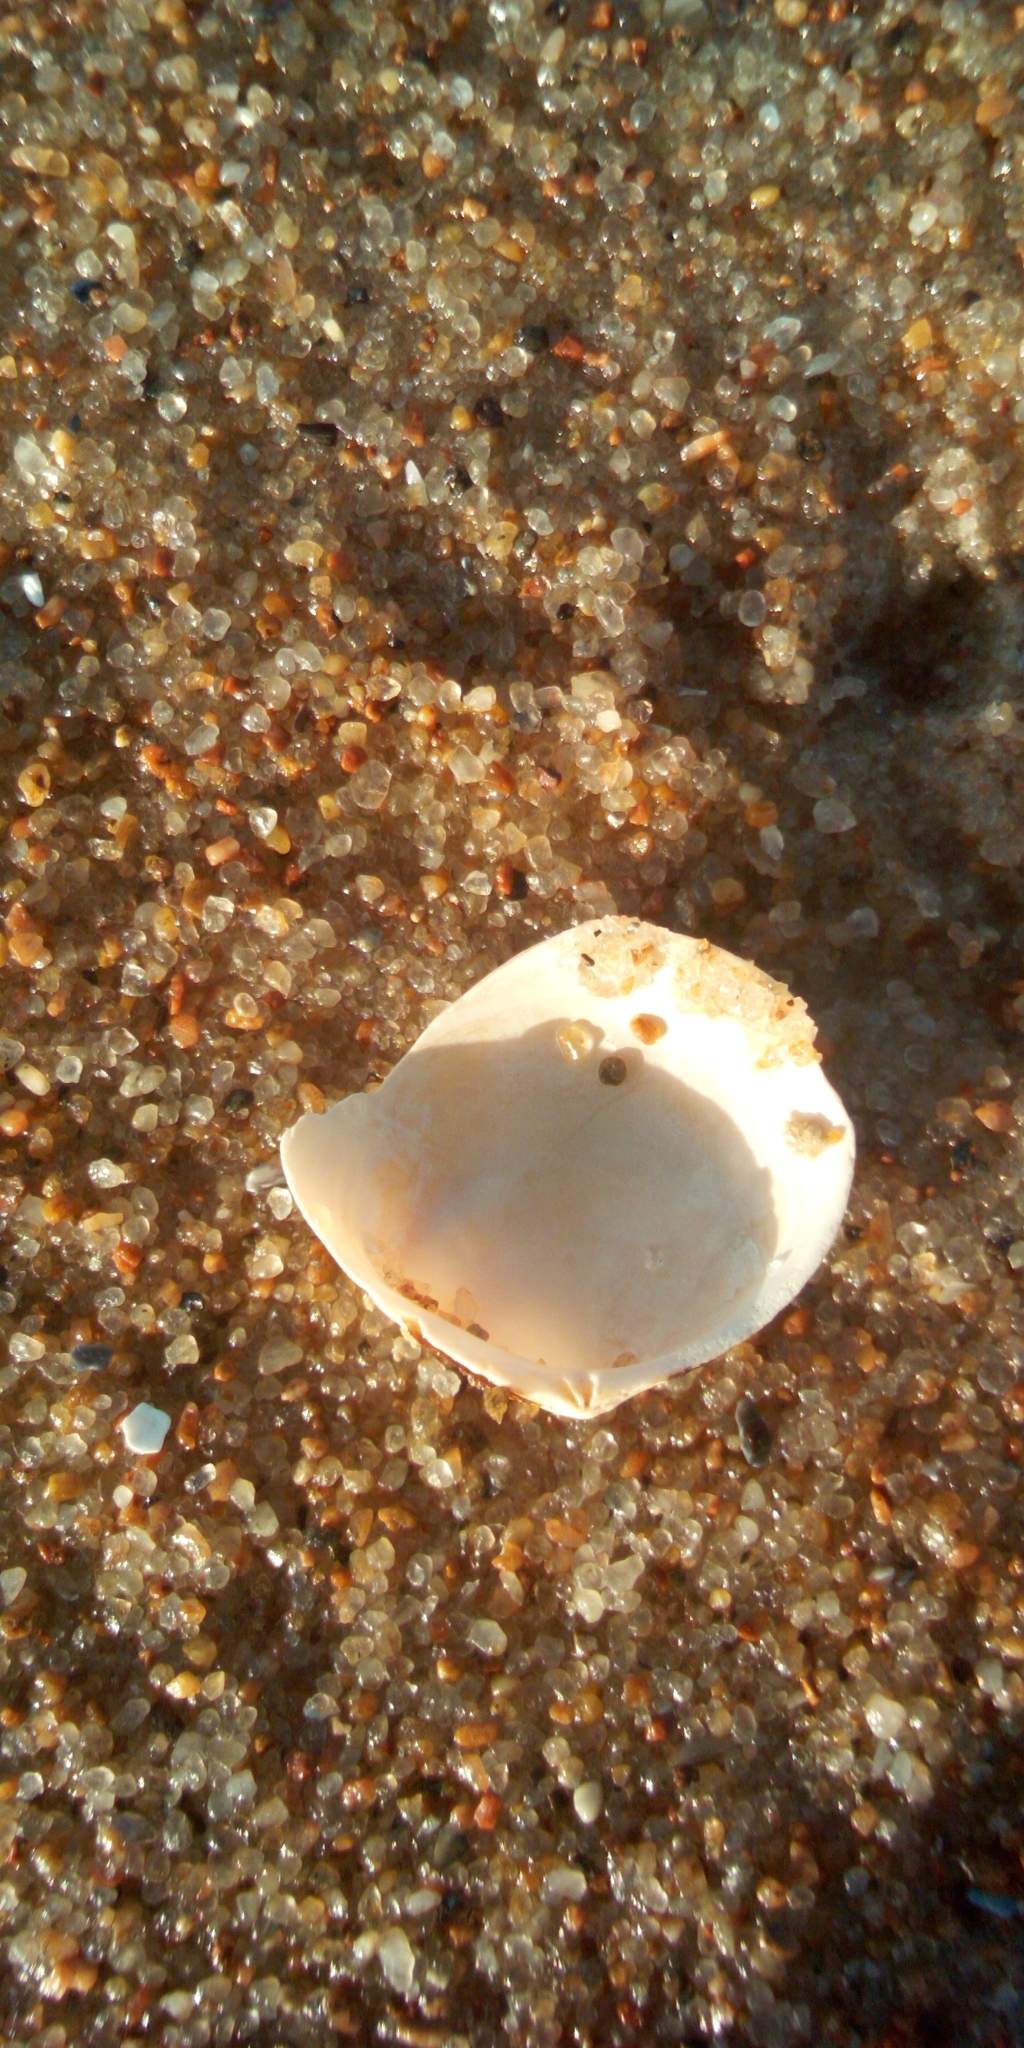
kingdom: Animalia
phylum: Mollusca
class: Bivalvia
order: Cardiida
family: Tellinidae
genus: Macoma
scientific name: Macoma balthica
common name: Baltic tellin
